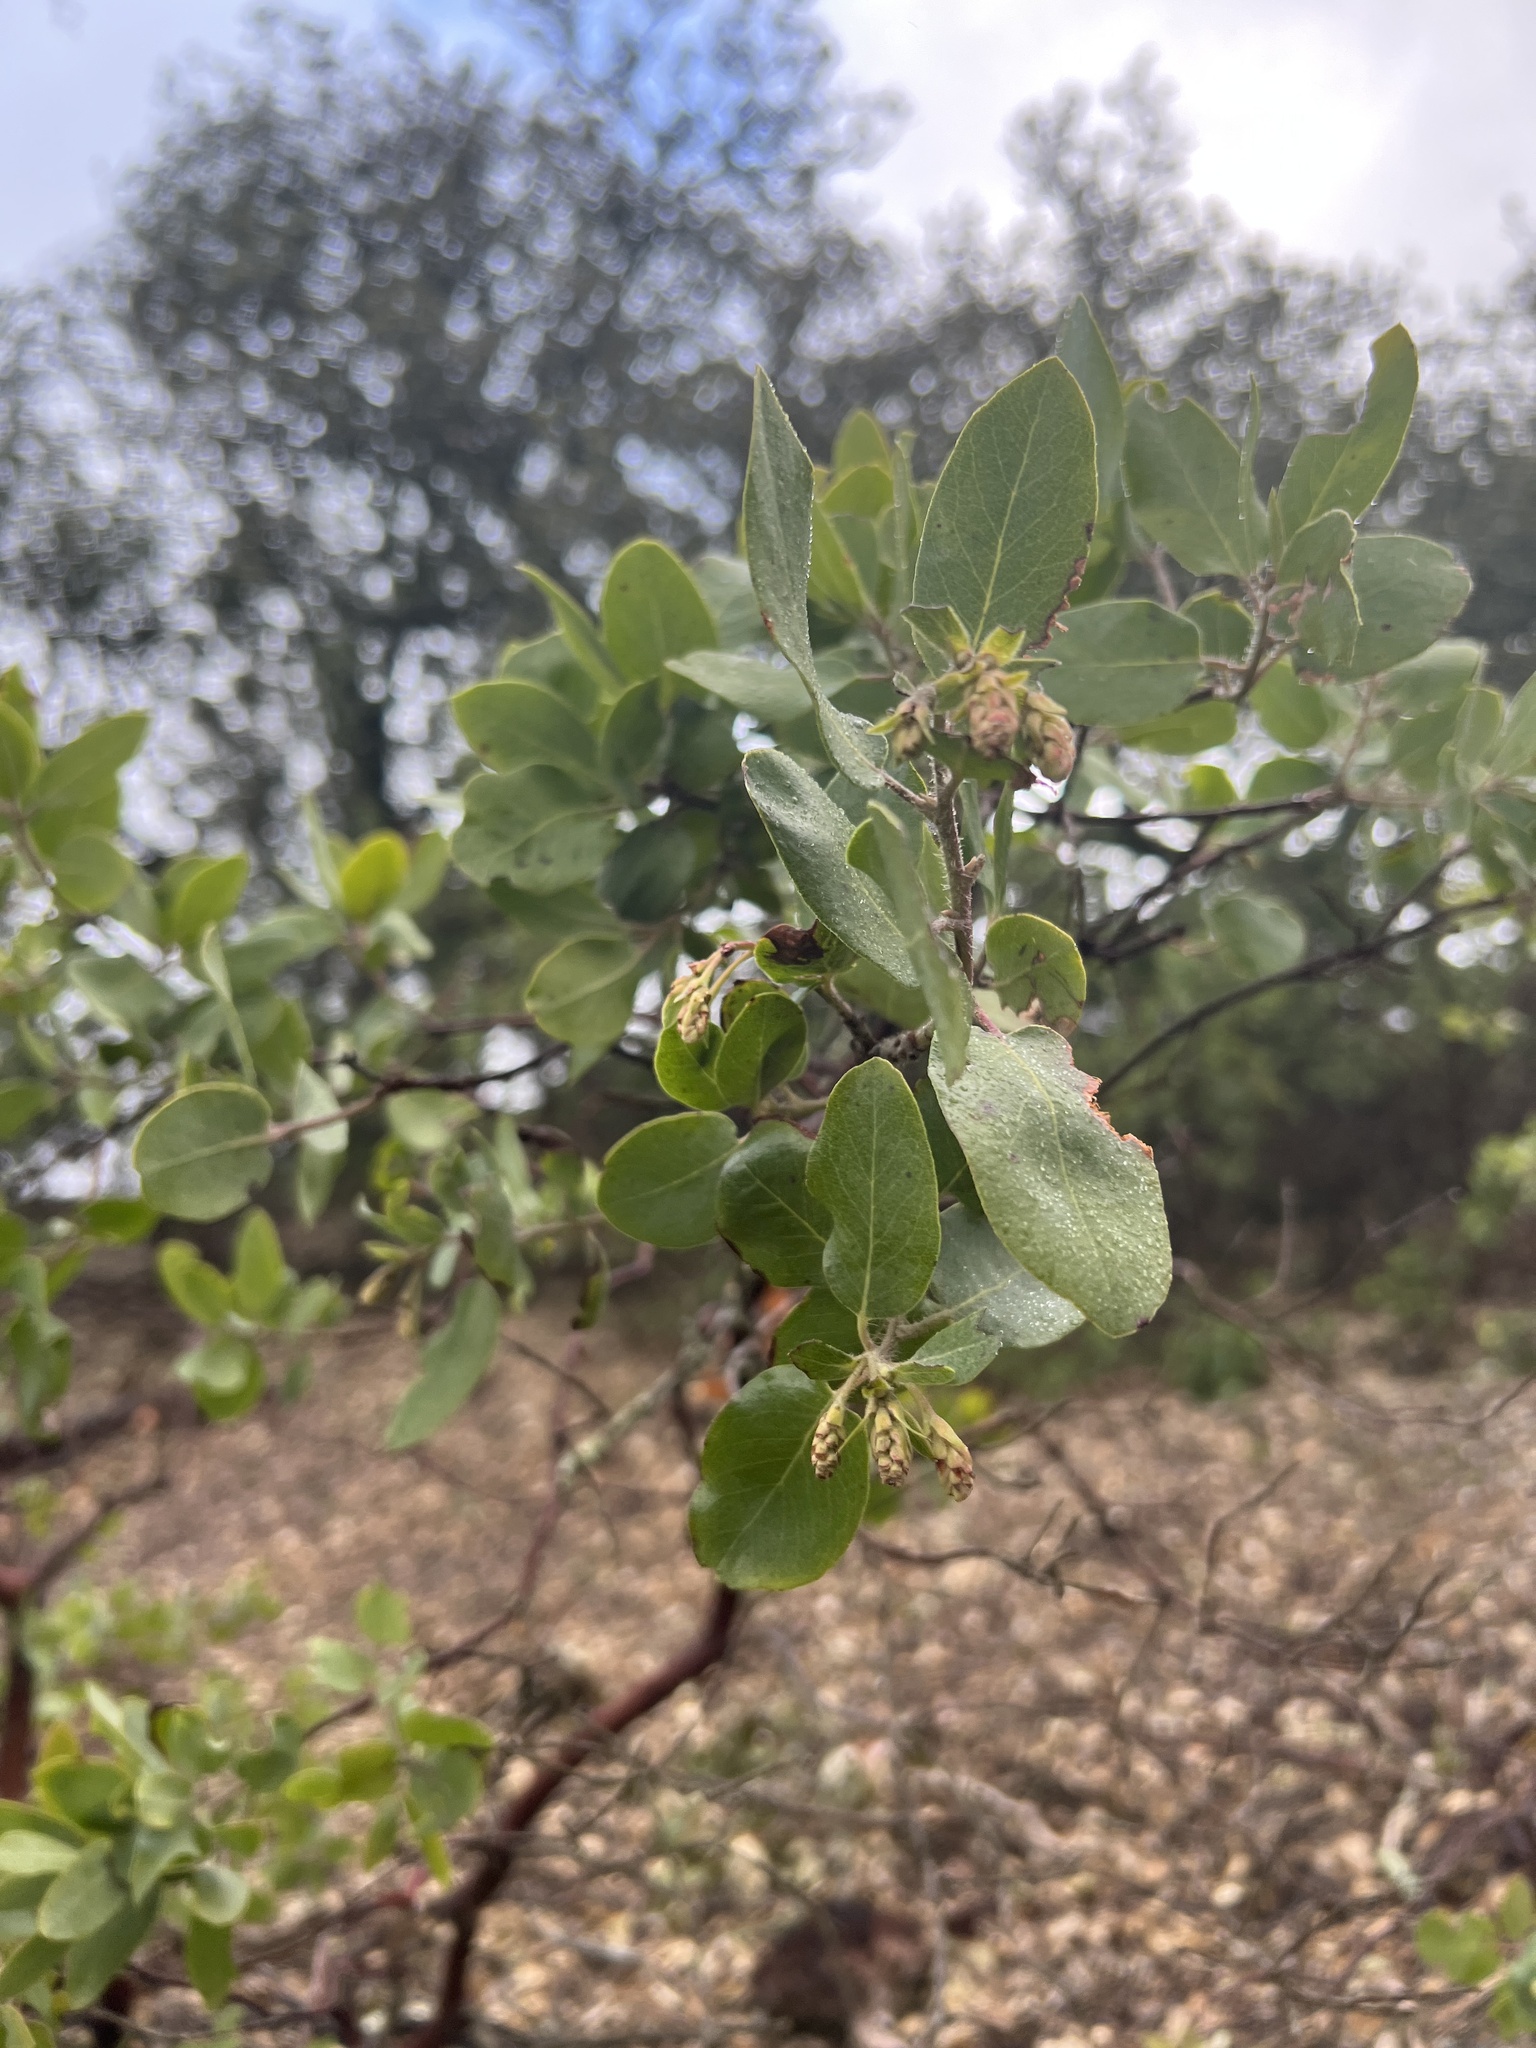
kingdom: Plantae
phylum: Tracheophyta
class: Magnoliopsida
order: Ericales
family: Ericaceae
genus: Arctostaphylos
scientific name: Arctostaphylos glandulosa
